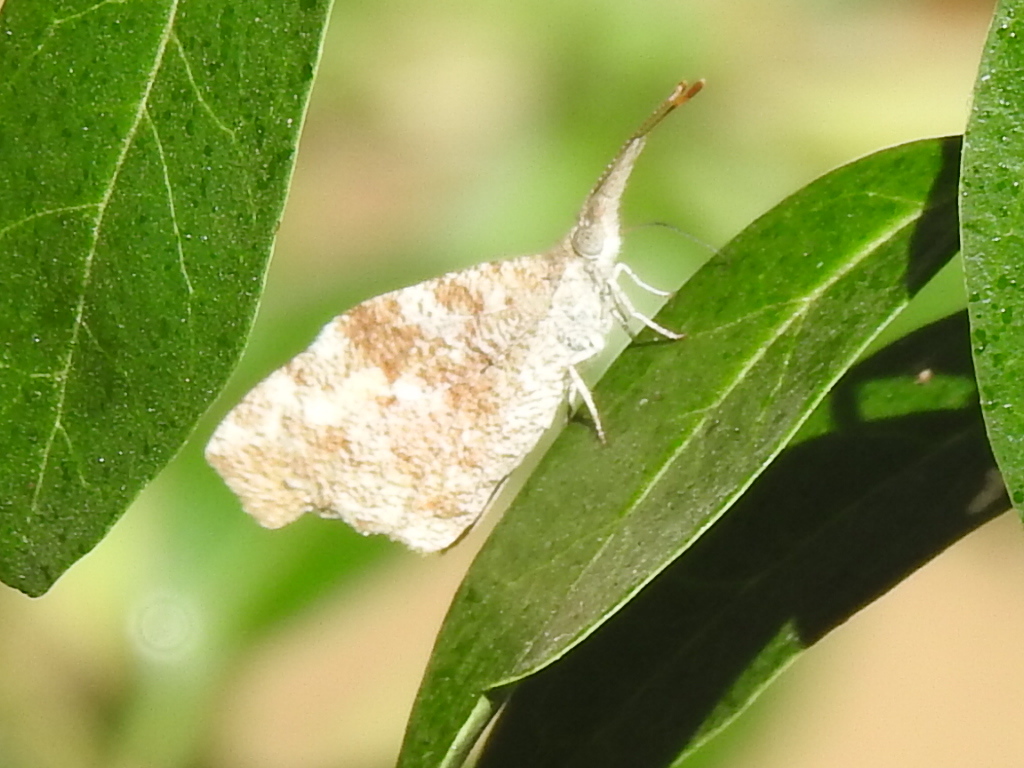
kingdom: Animalia
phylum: Arthropoda
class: Insecta
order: Lepidoptera
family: Nymphalidae
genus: Libytheana
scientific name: Libytheana carinenta
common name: American snout
